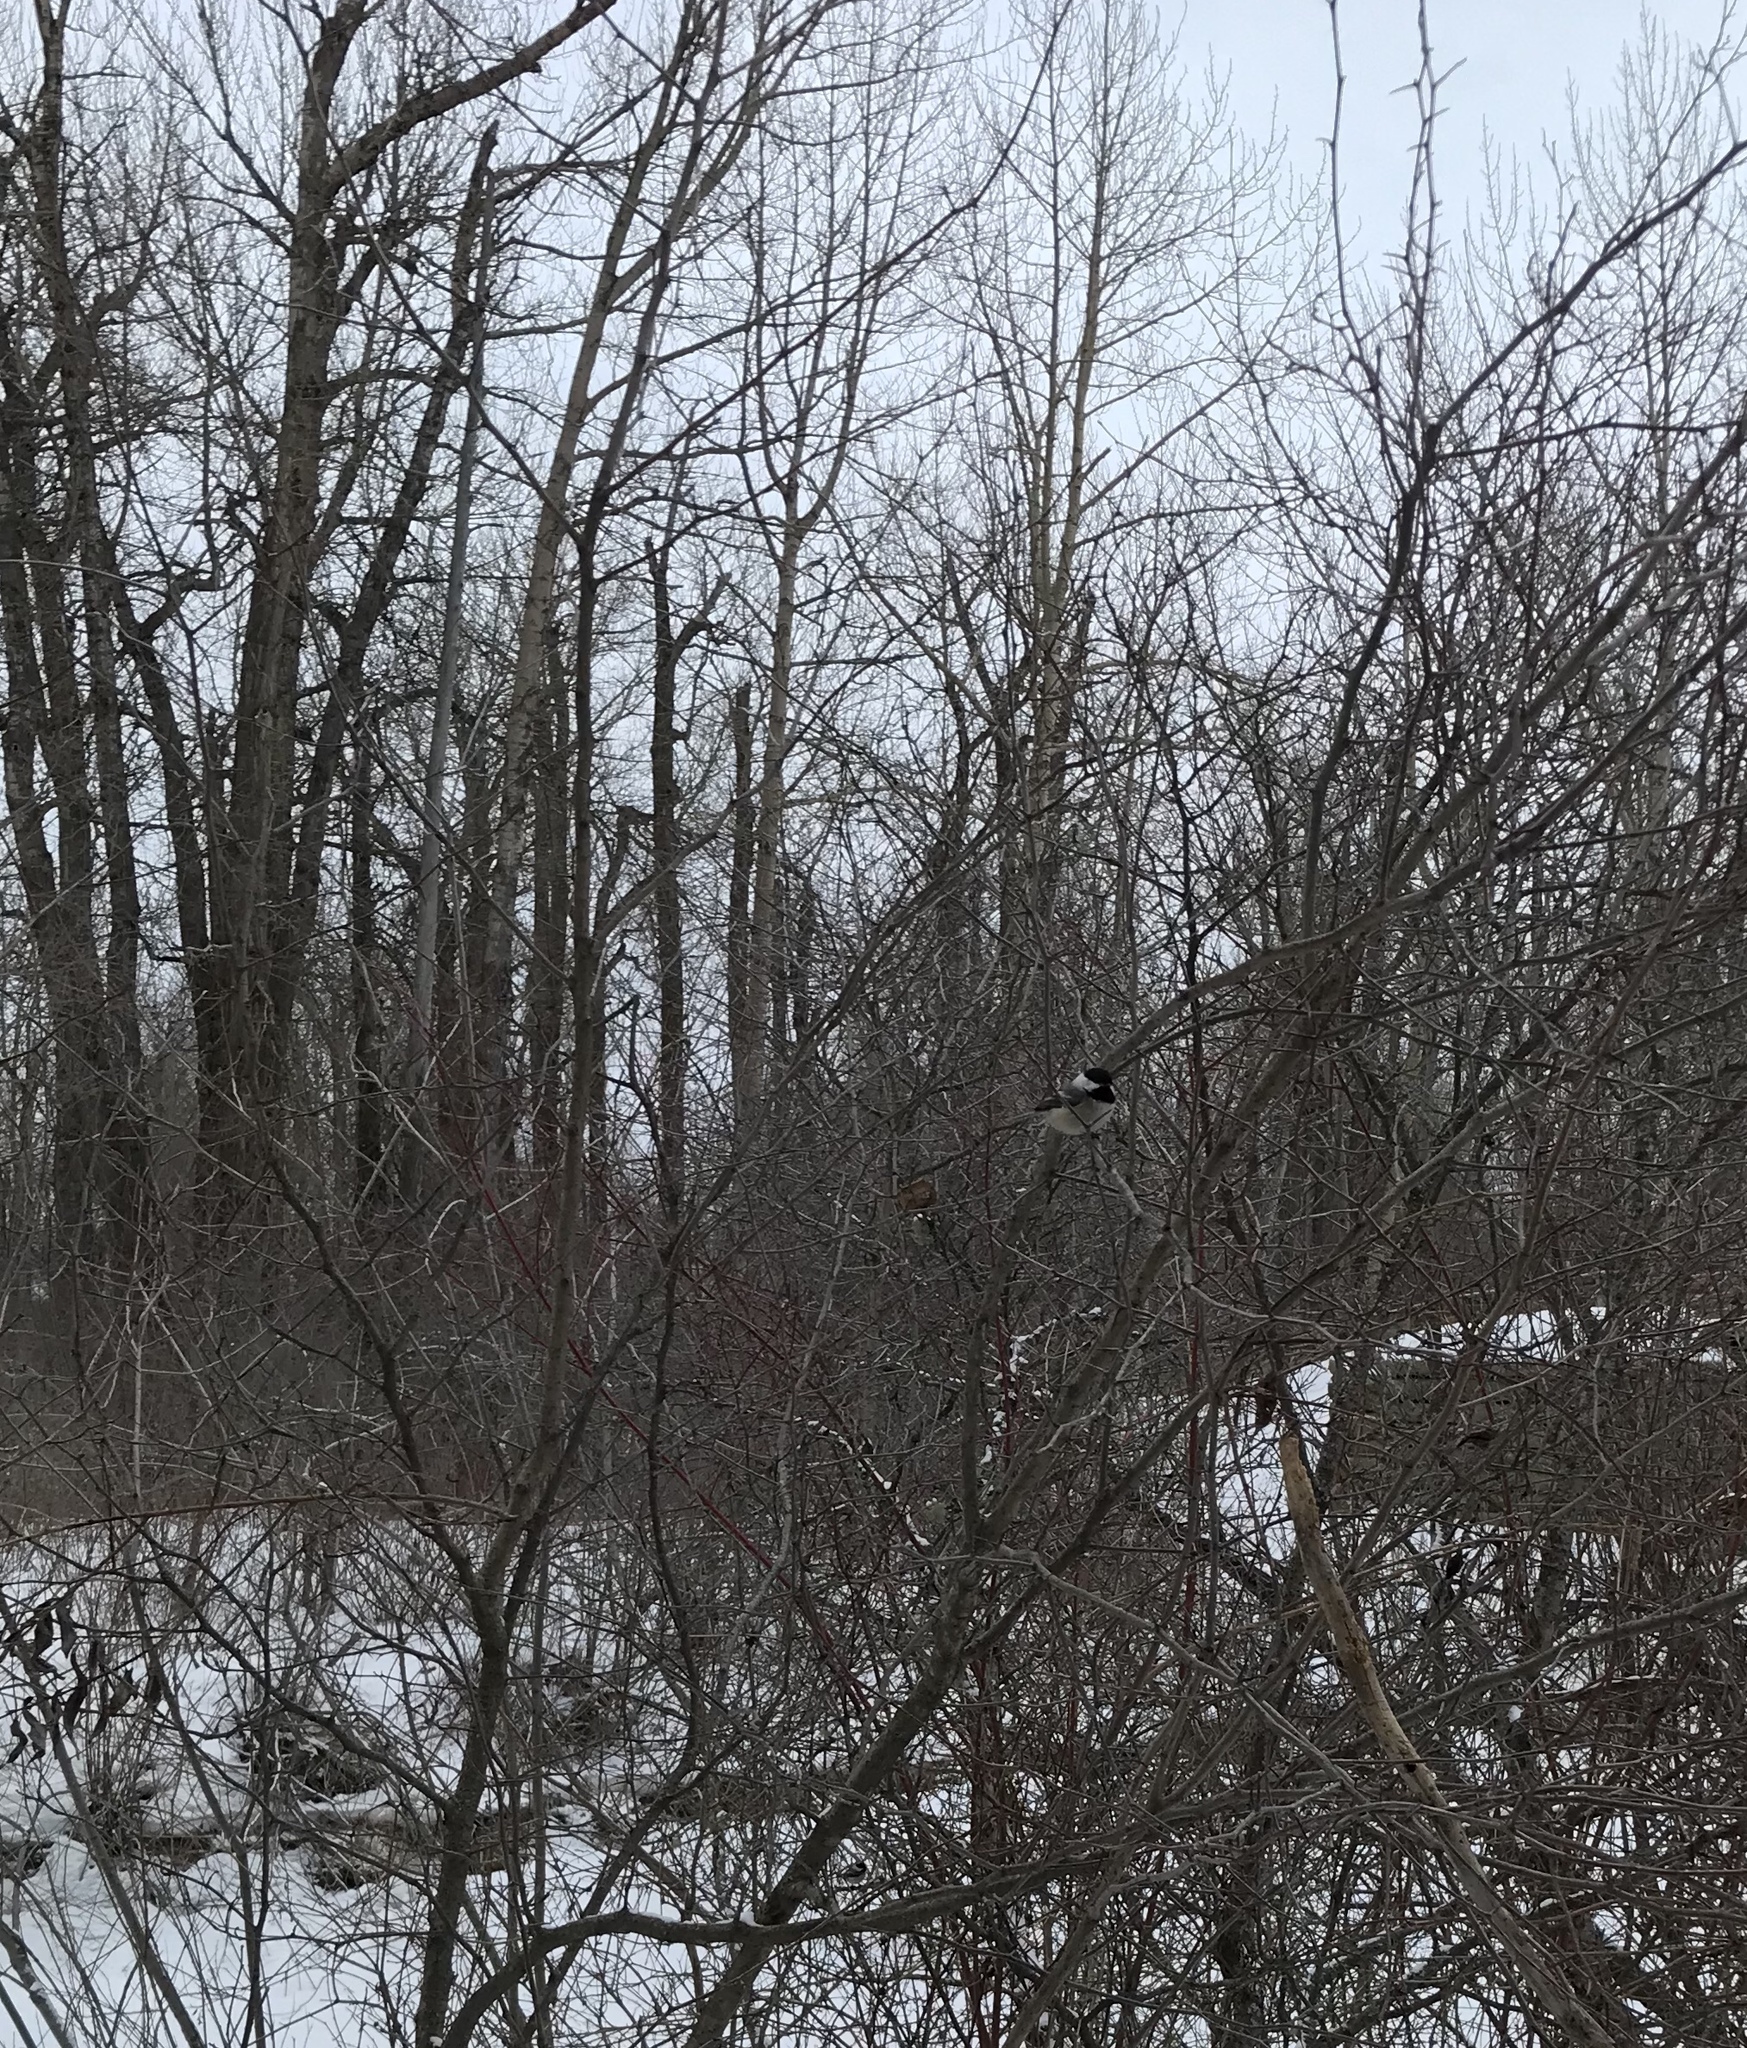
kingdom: Animalia
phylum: Chordata
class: Aves
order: Passeriformes
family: Paridae
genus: Poecile
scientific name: Poecile atricapillus
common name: Black-capped chickadee
